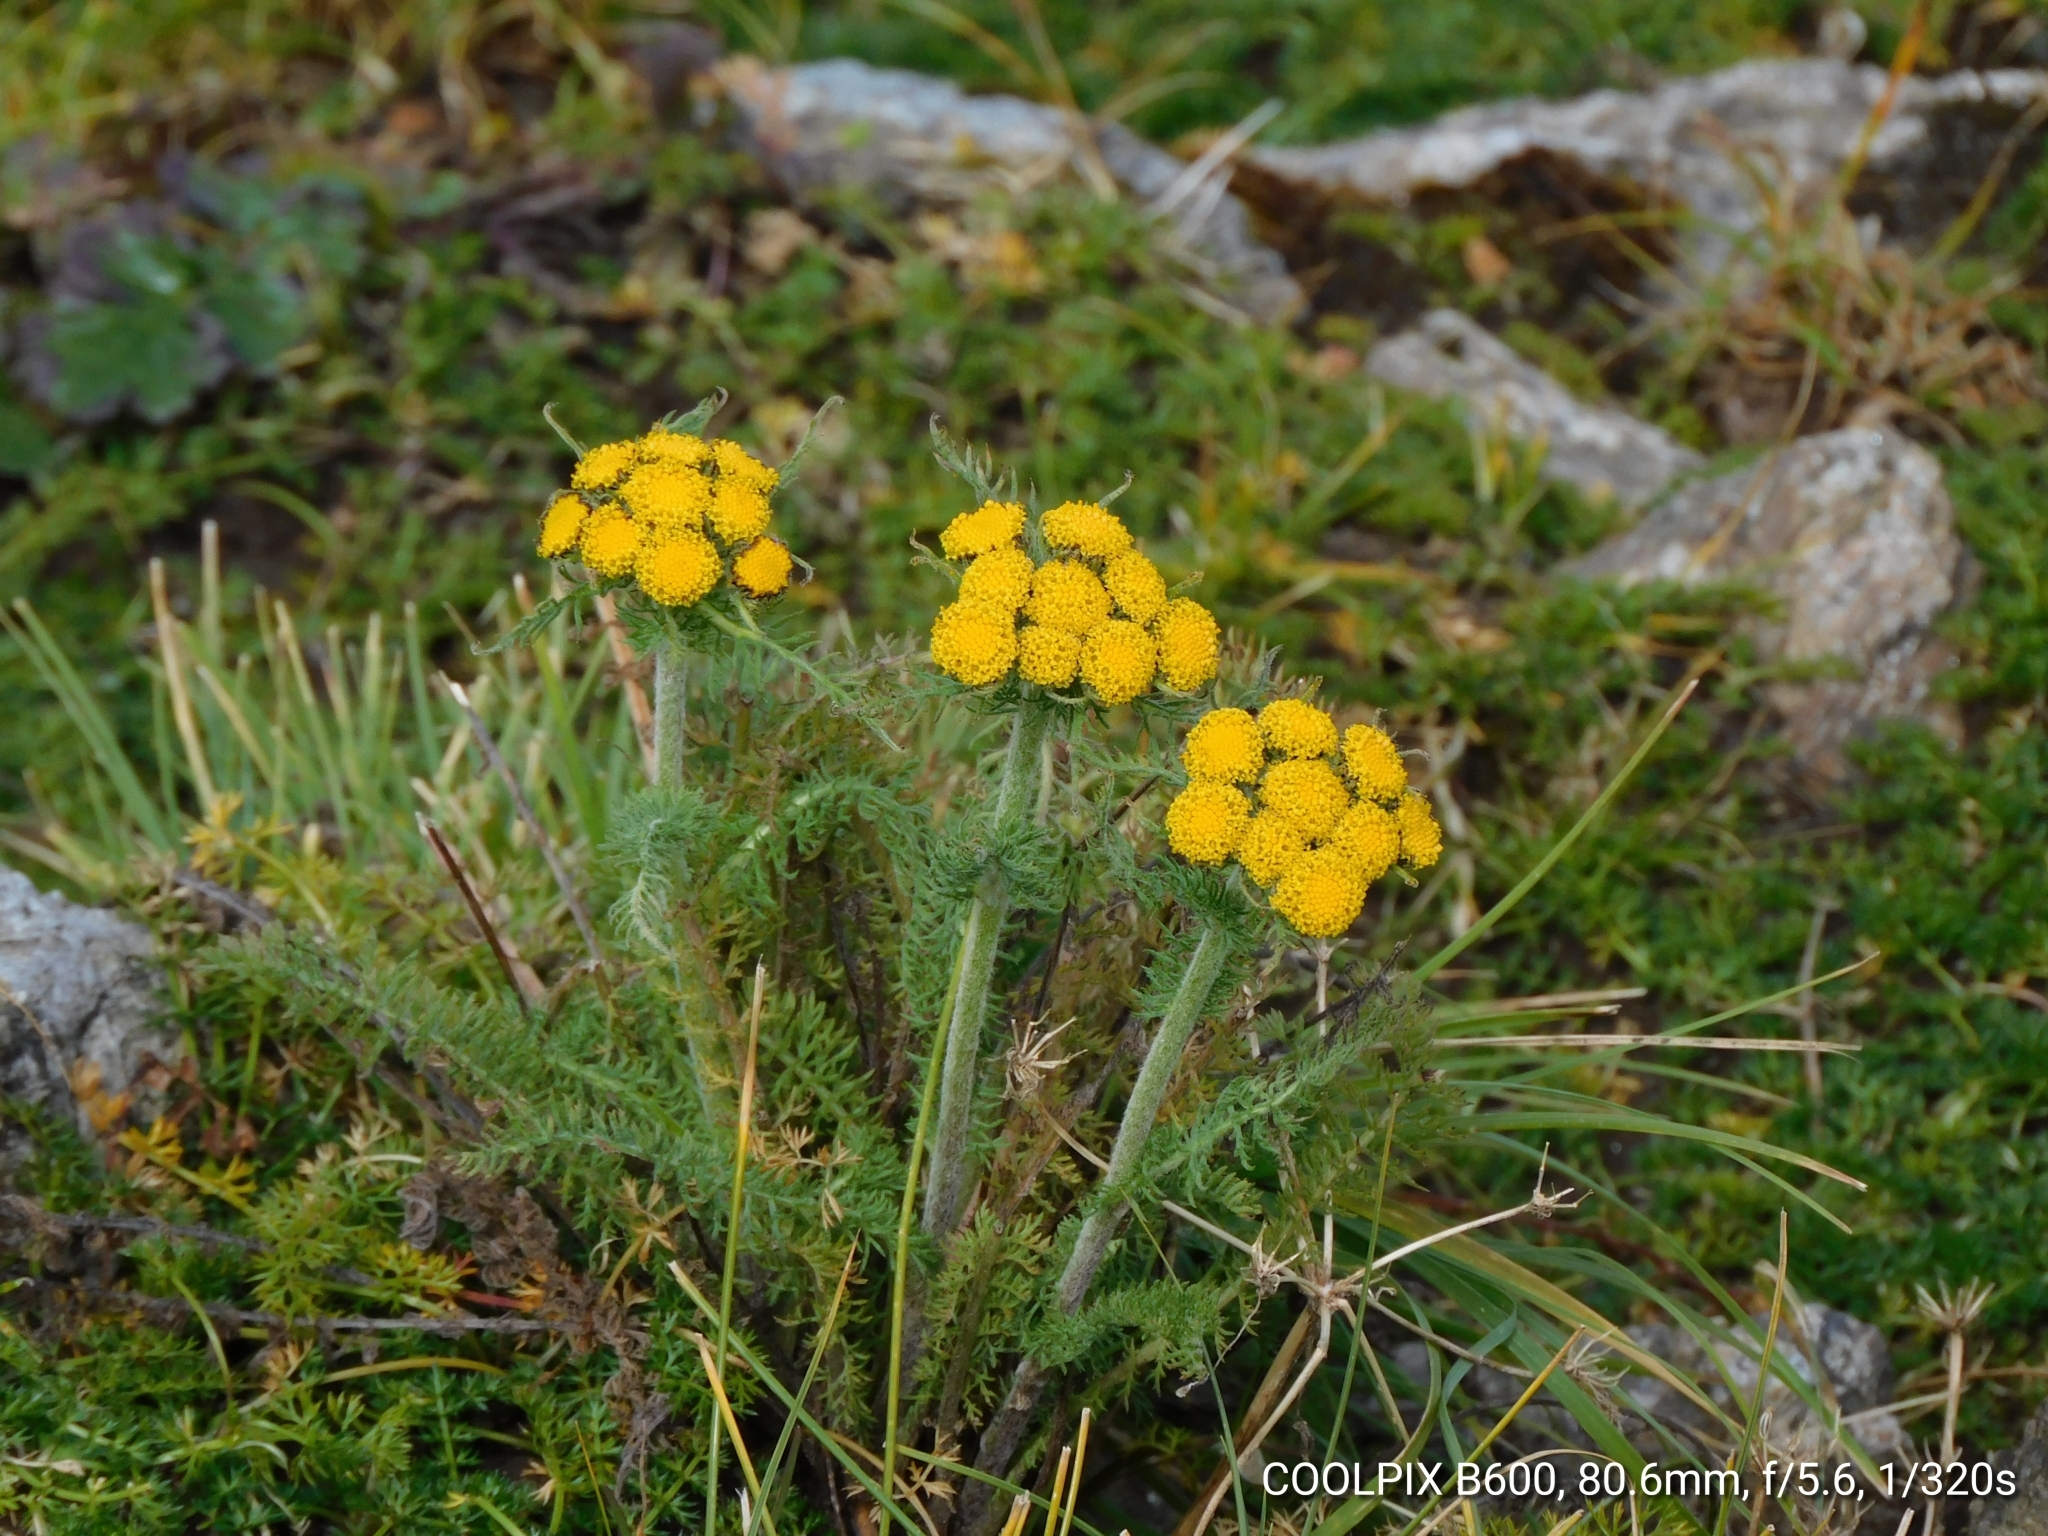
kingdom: Plantae
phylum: Tracheophyta
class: Magnoliopsida
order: Asterales
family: Asteraceae
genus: Hippolytia
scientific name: Hippolytia longifolia
